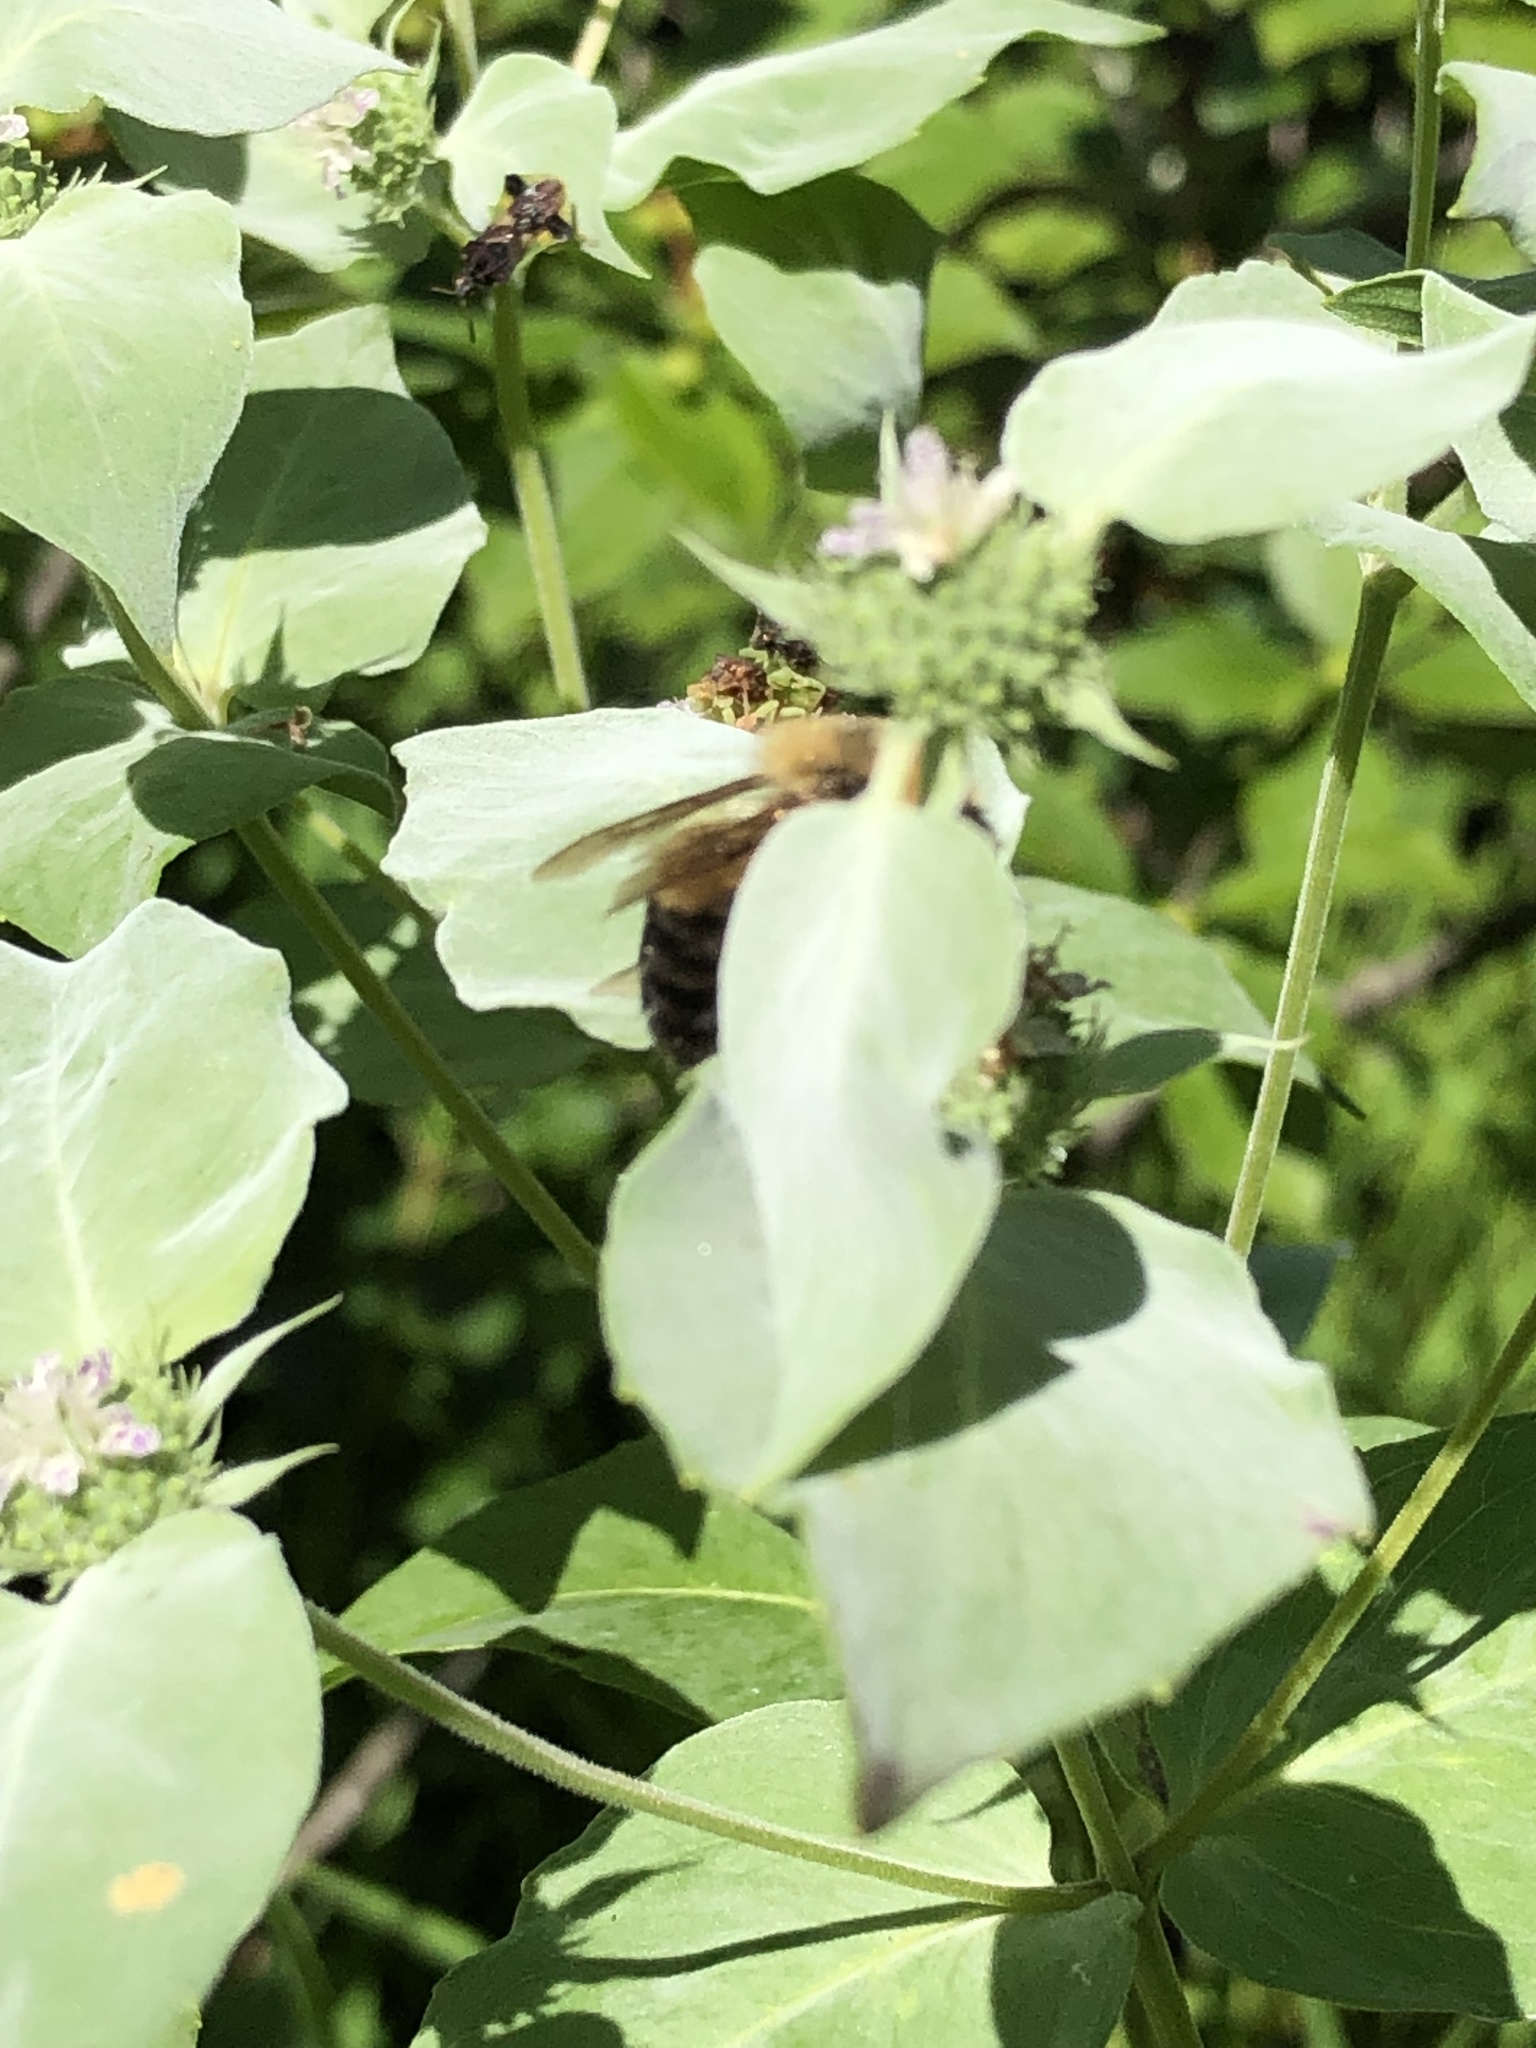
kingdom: Animalia
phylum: Arthropoda
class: Insecta
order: Hymenoptera
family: Apidae
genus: Bombus
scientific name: Bombus griseocollis
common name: Brown-belted bumble bee
